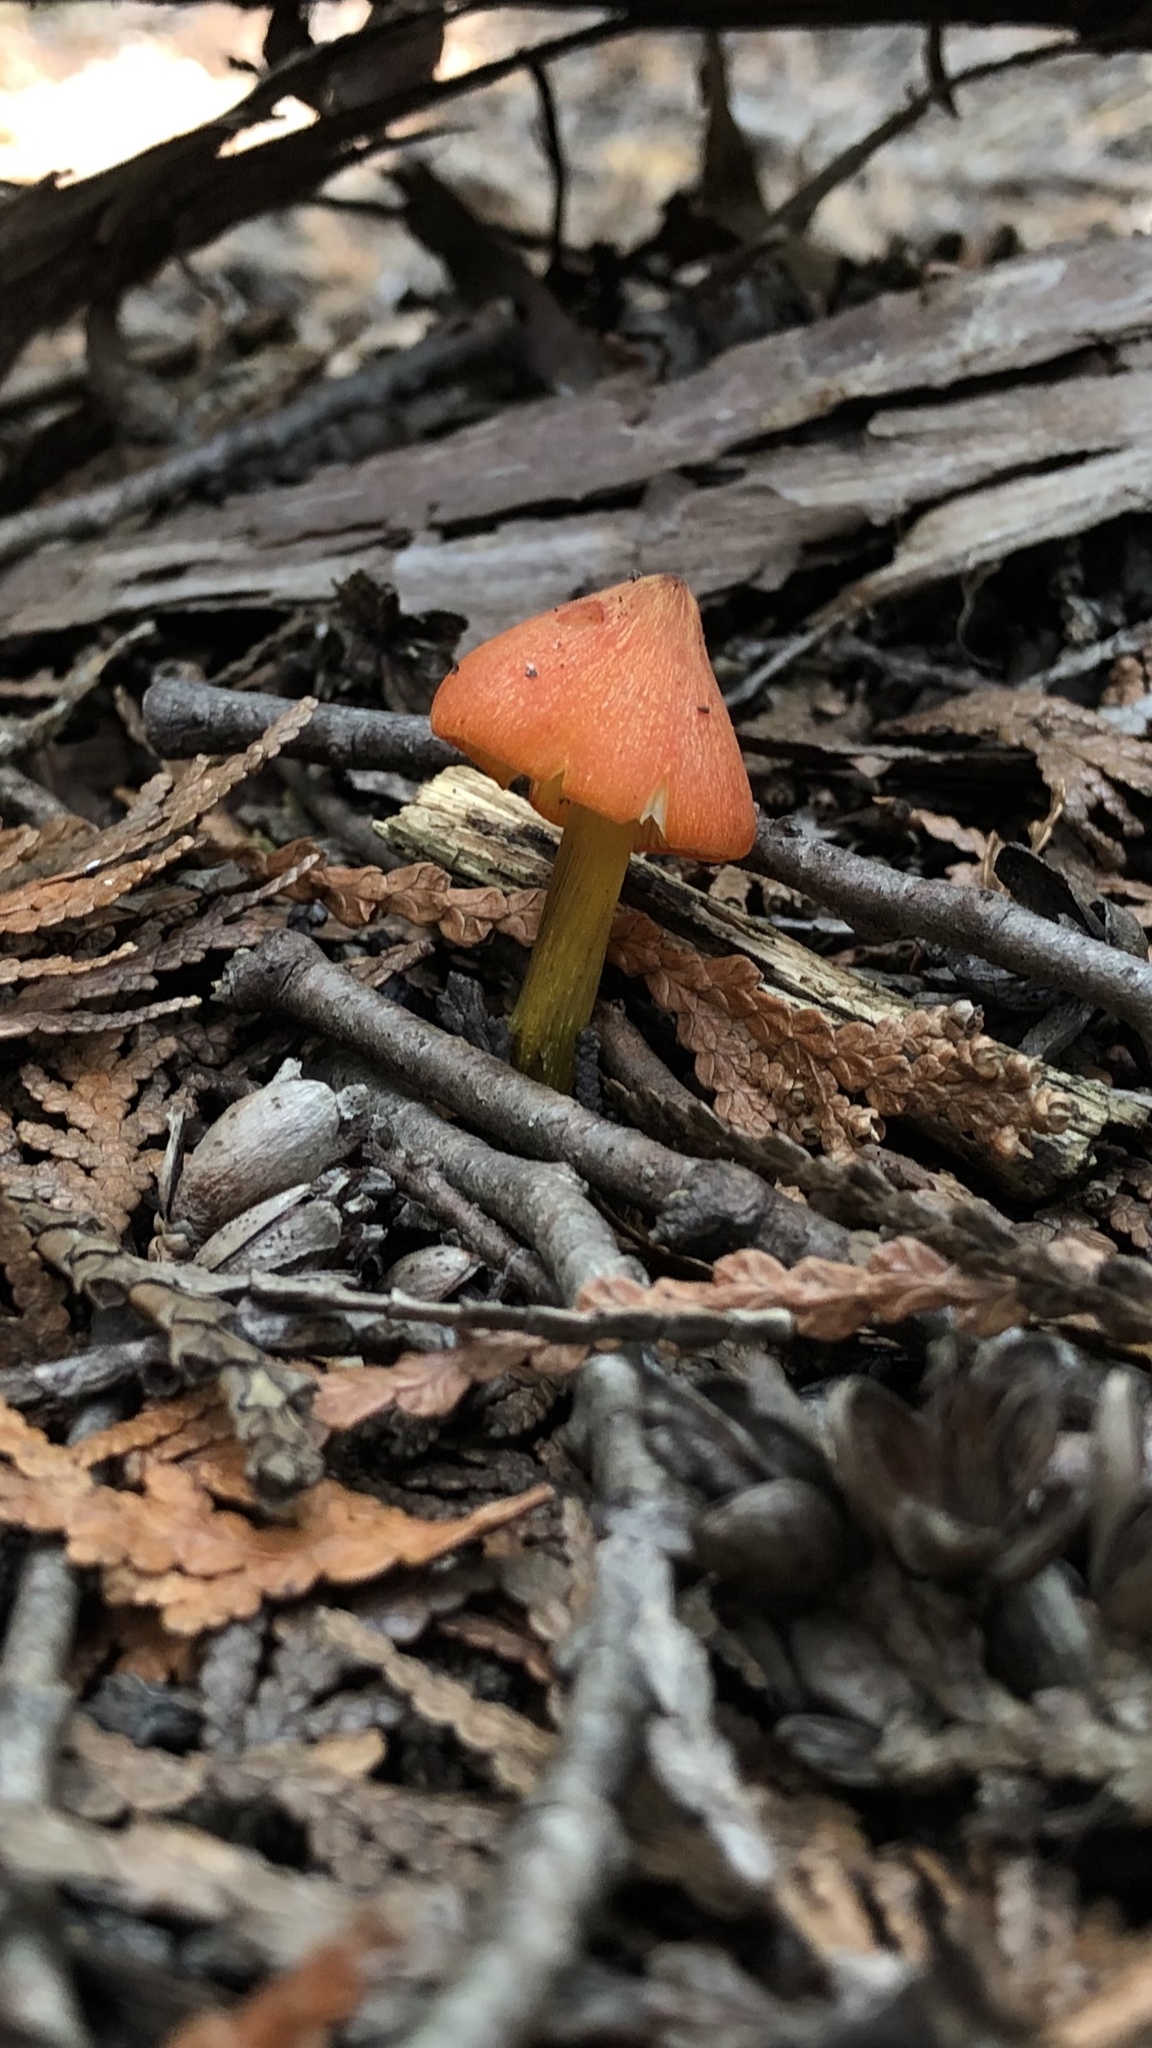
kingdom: Fungi
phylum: Basidiomycota
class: Agaricomycetes
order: Agaricales
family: Hygrophoraceae
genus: Hygrocybe
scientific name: Hygrocybe conica
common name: Blackening wax-cap
